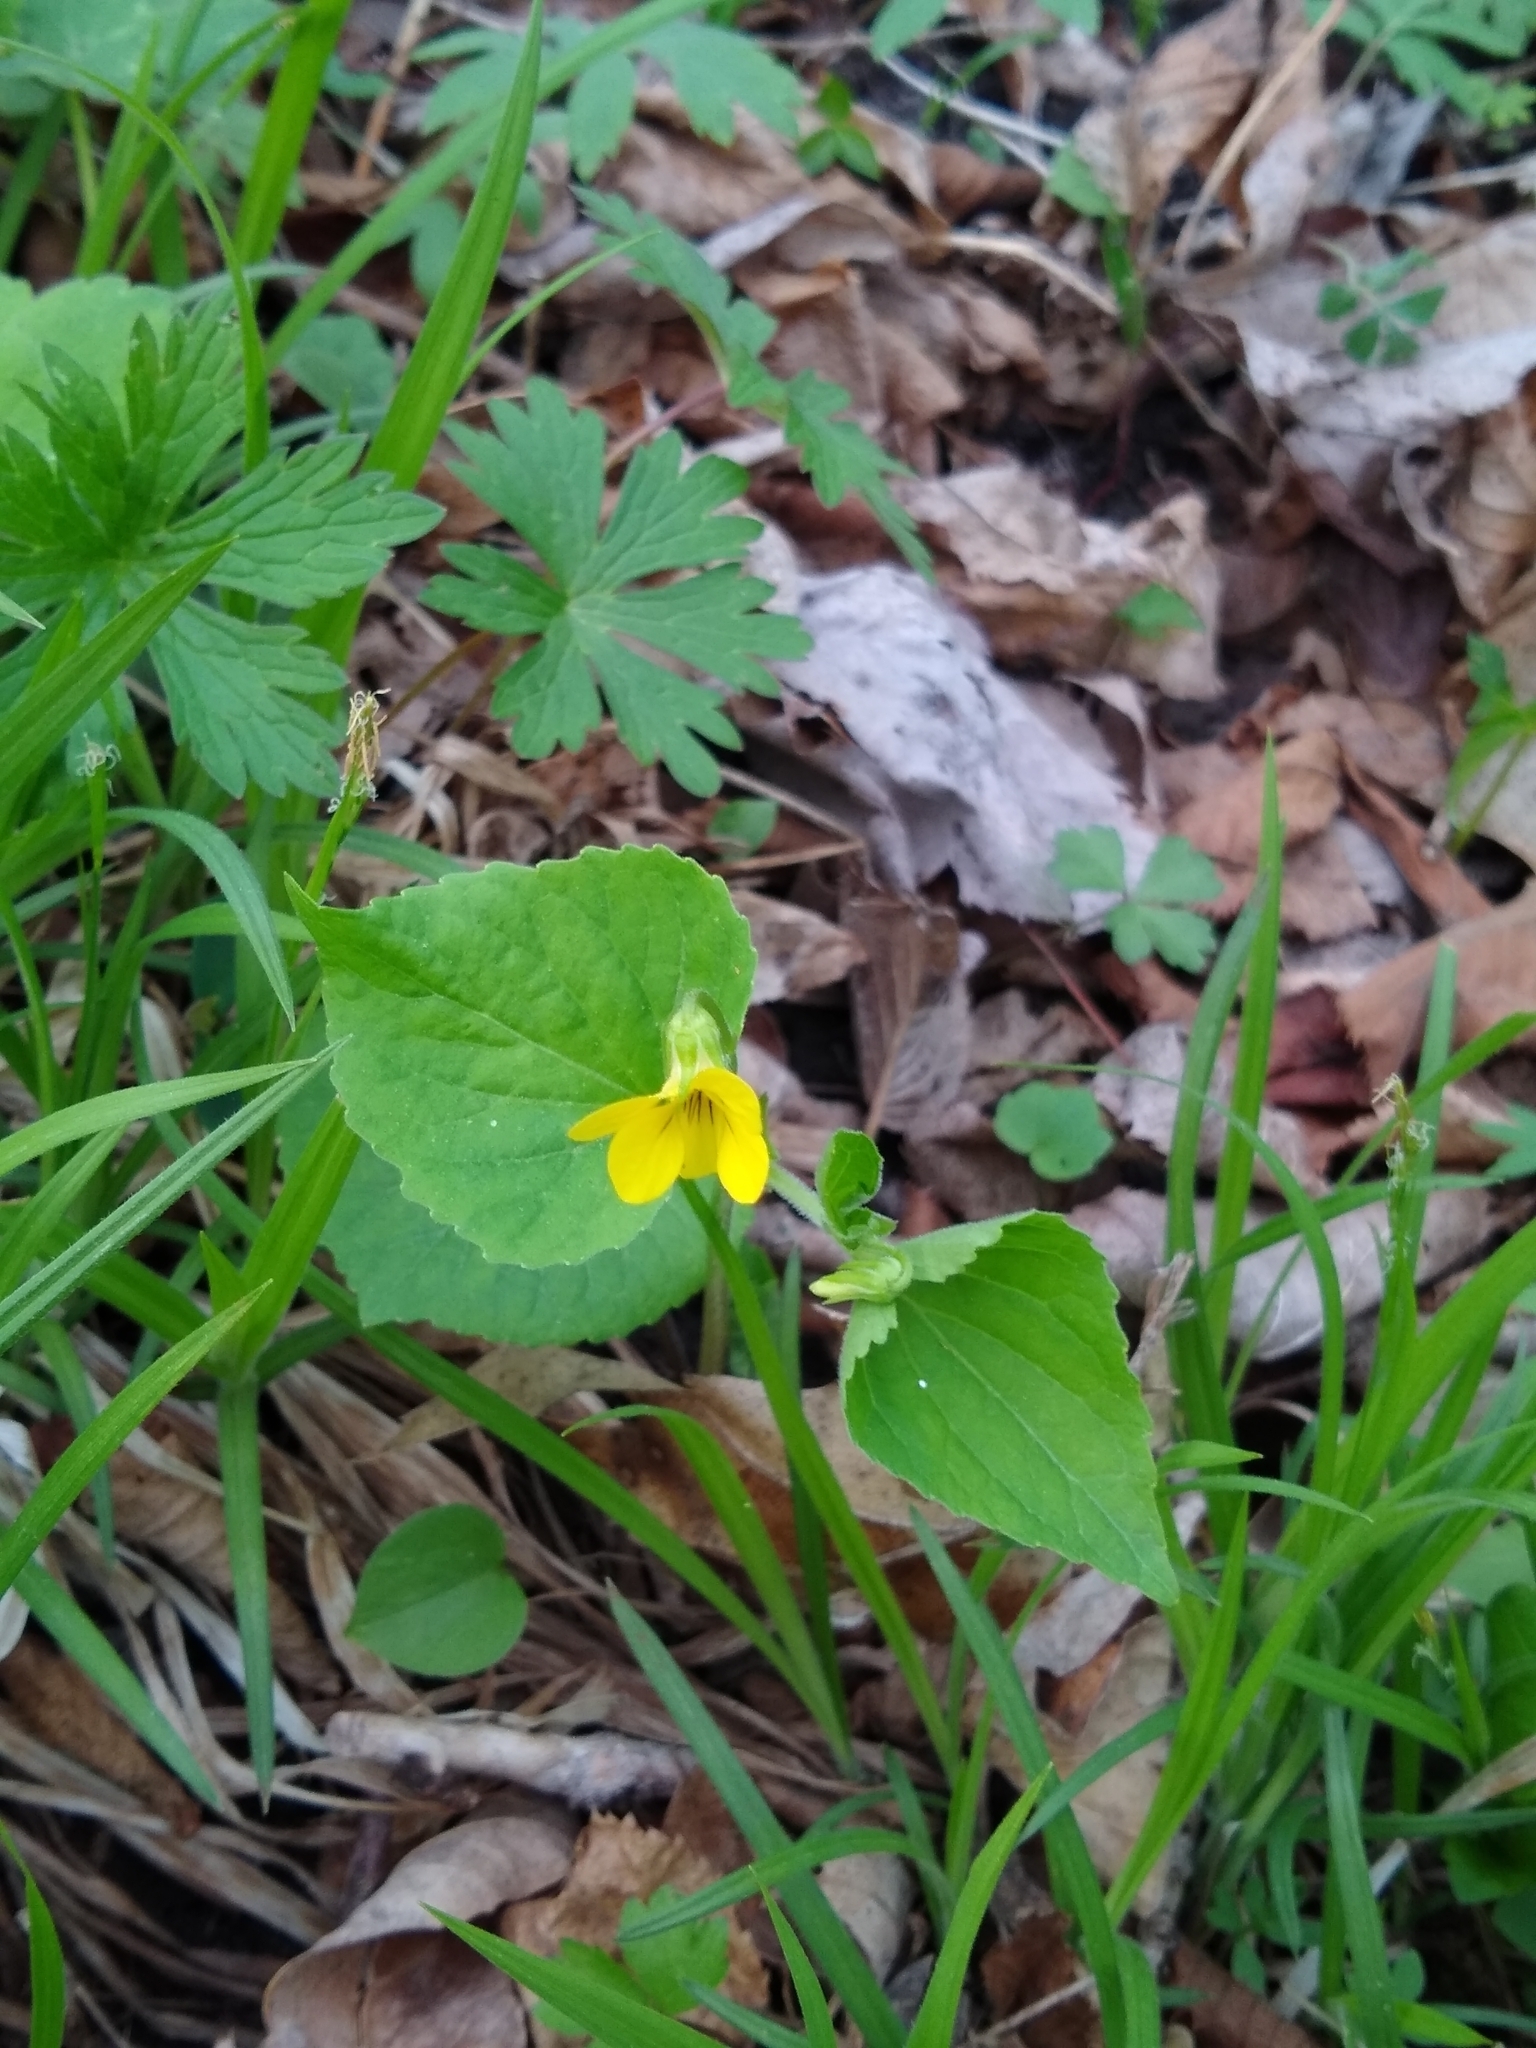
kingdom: Plantae
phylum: Tracheophyta
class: Magnoliopsida
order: Malpighiales
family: Violaceae
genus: Viola
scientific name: Viola eriocarpa
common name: Smooth yellow violet
